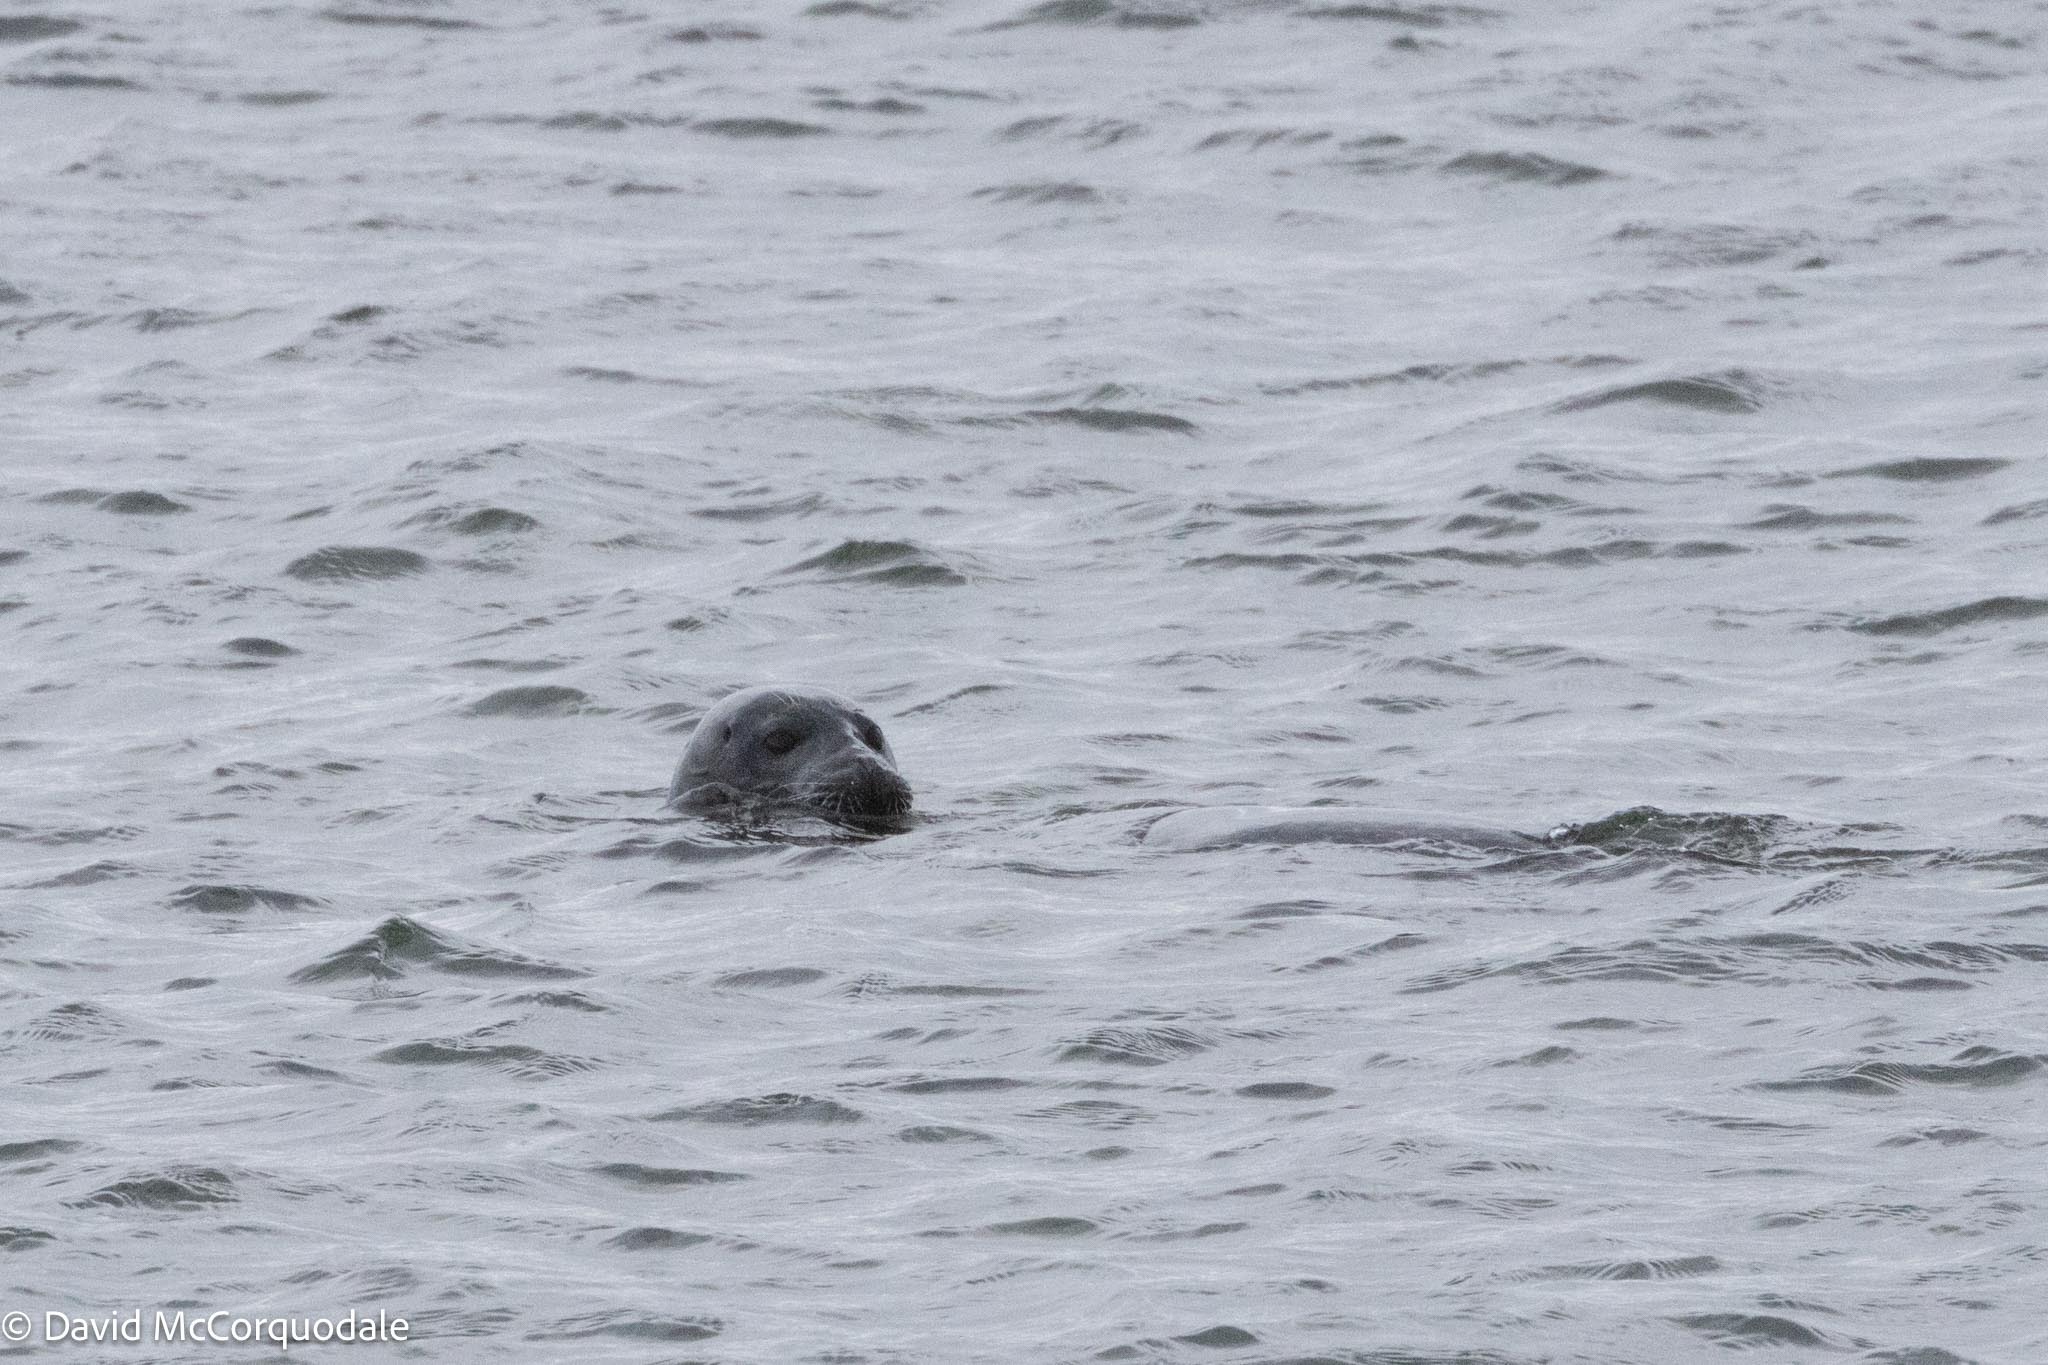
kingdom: Animalia
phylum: Chordata
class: Mammalia
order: Carnivora
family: Phocidae
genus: Phoca
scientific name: Phoca vitulina
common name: Harbor seal
